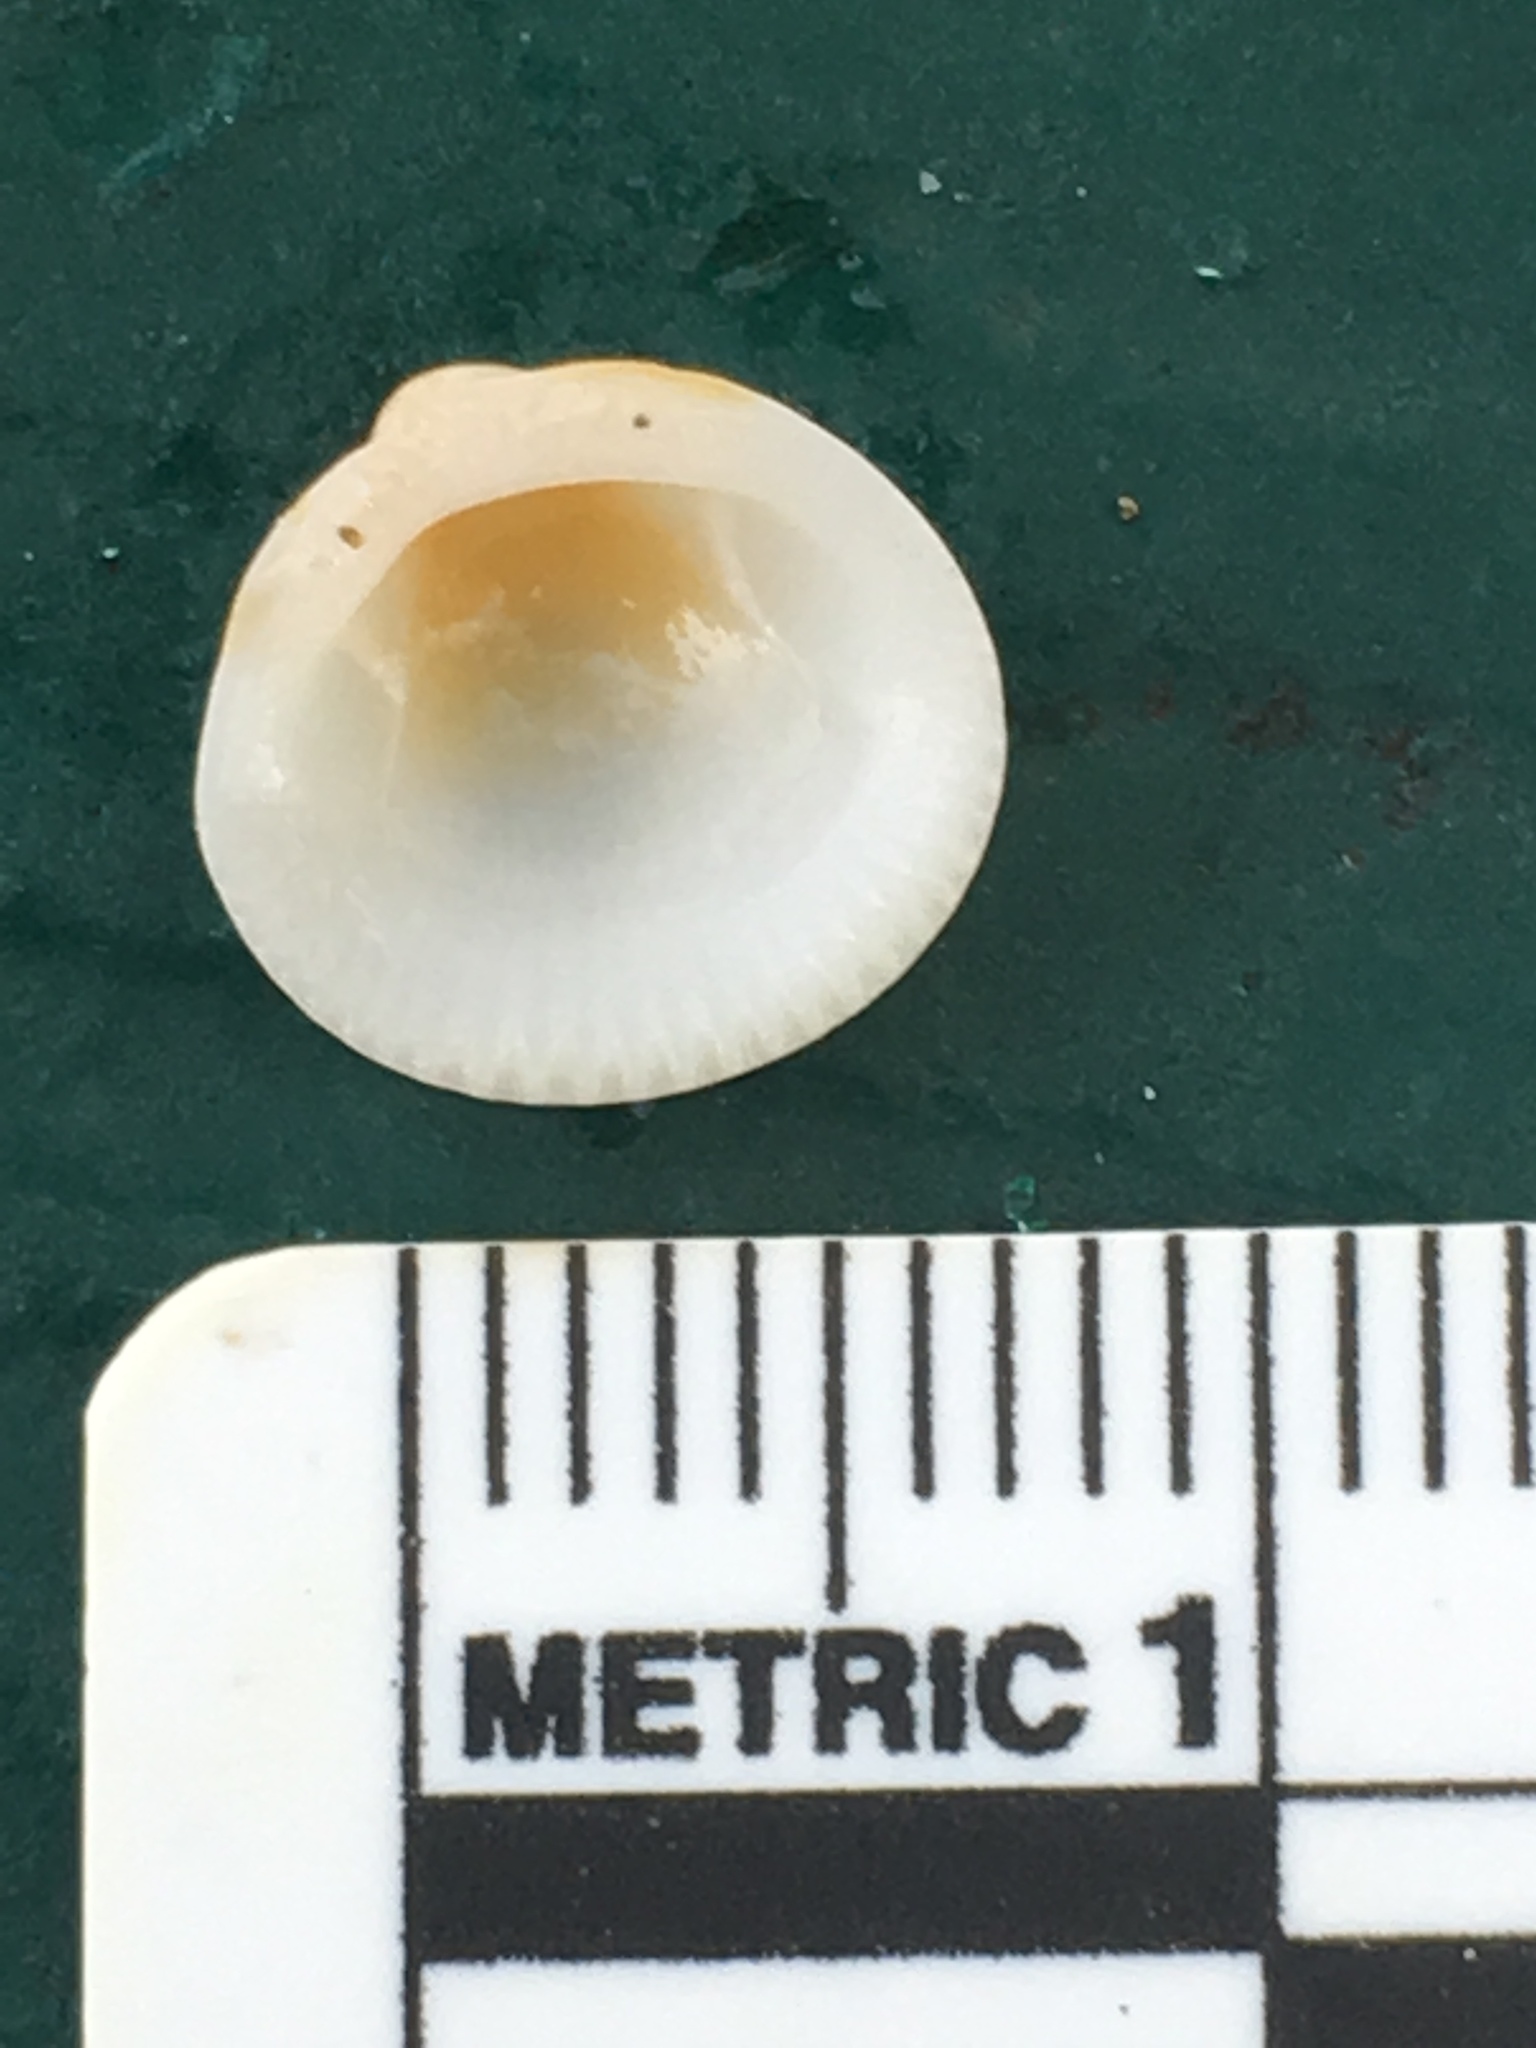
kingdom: Animalia
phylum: Mollusca
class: Bivalvia
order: Arcida
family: Glycymerididae
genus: Glycymeris
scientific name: Glycymeris spectralis
